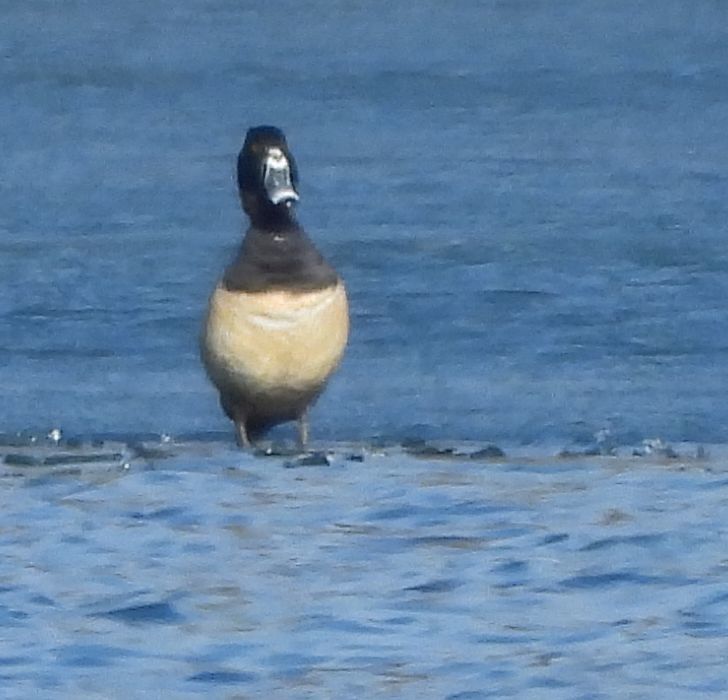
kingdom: Animalia
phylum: Chordata
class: Aves
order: Anseriformes
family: Anatidae
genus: Aythya
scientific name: Aythya collaris
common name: Ring-necked duck
